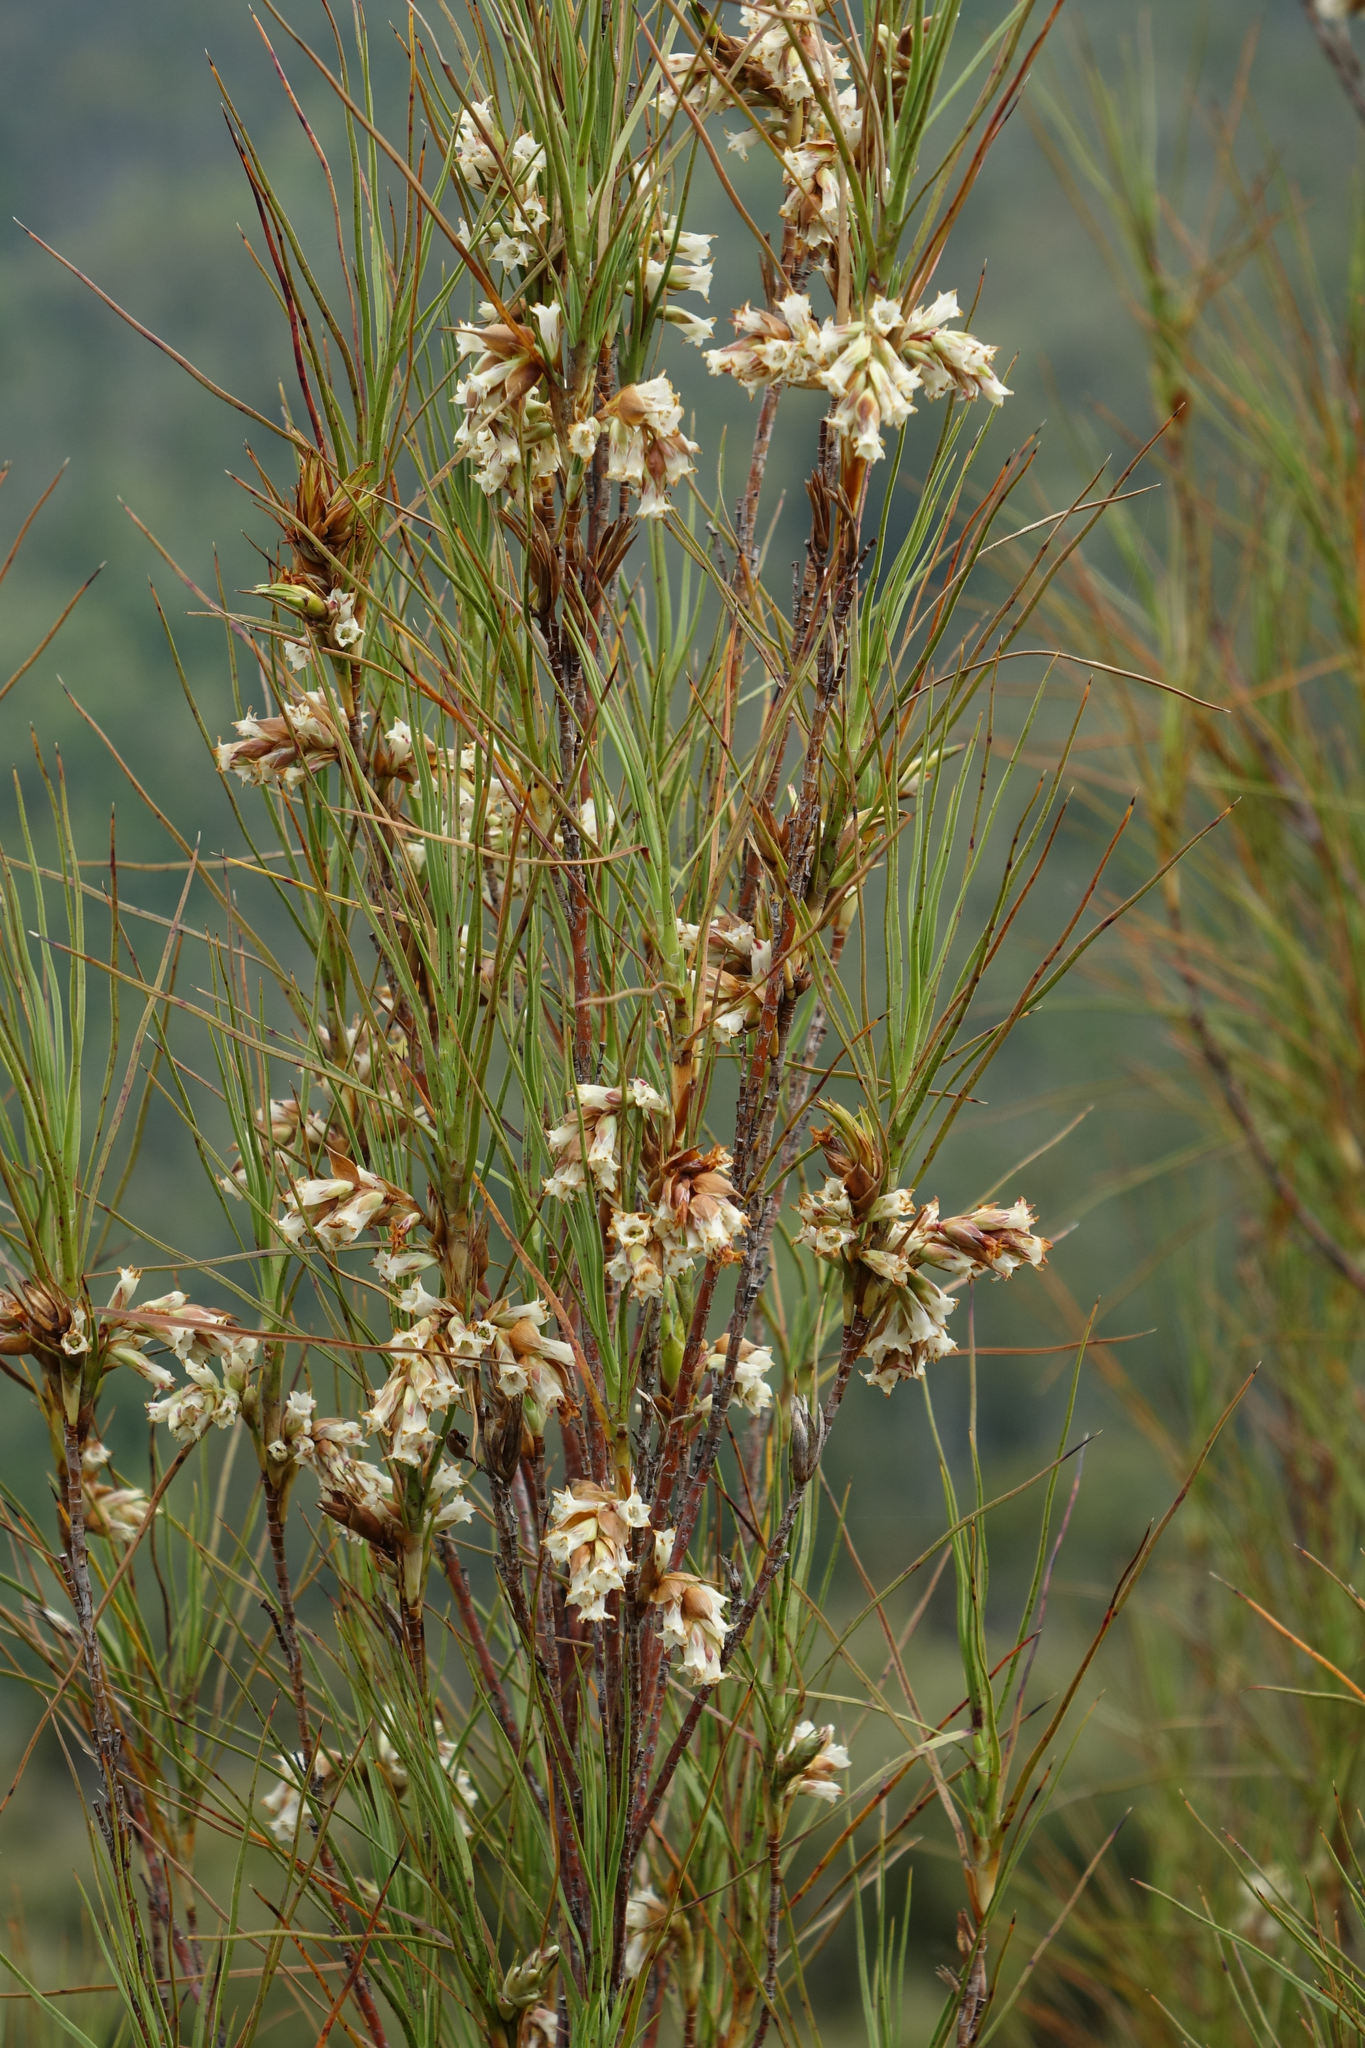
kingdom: Plantae
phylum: Tracheophyta
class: Magnoliopsida
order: Ericales
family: Ericaceae
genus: Dracophyllum
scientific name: Dracophyllum longifolium
